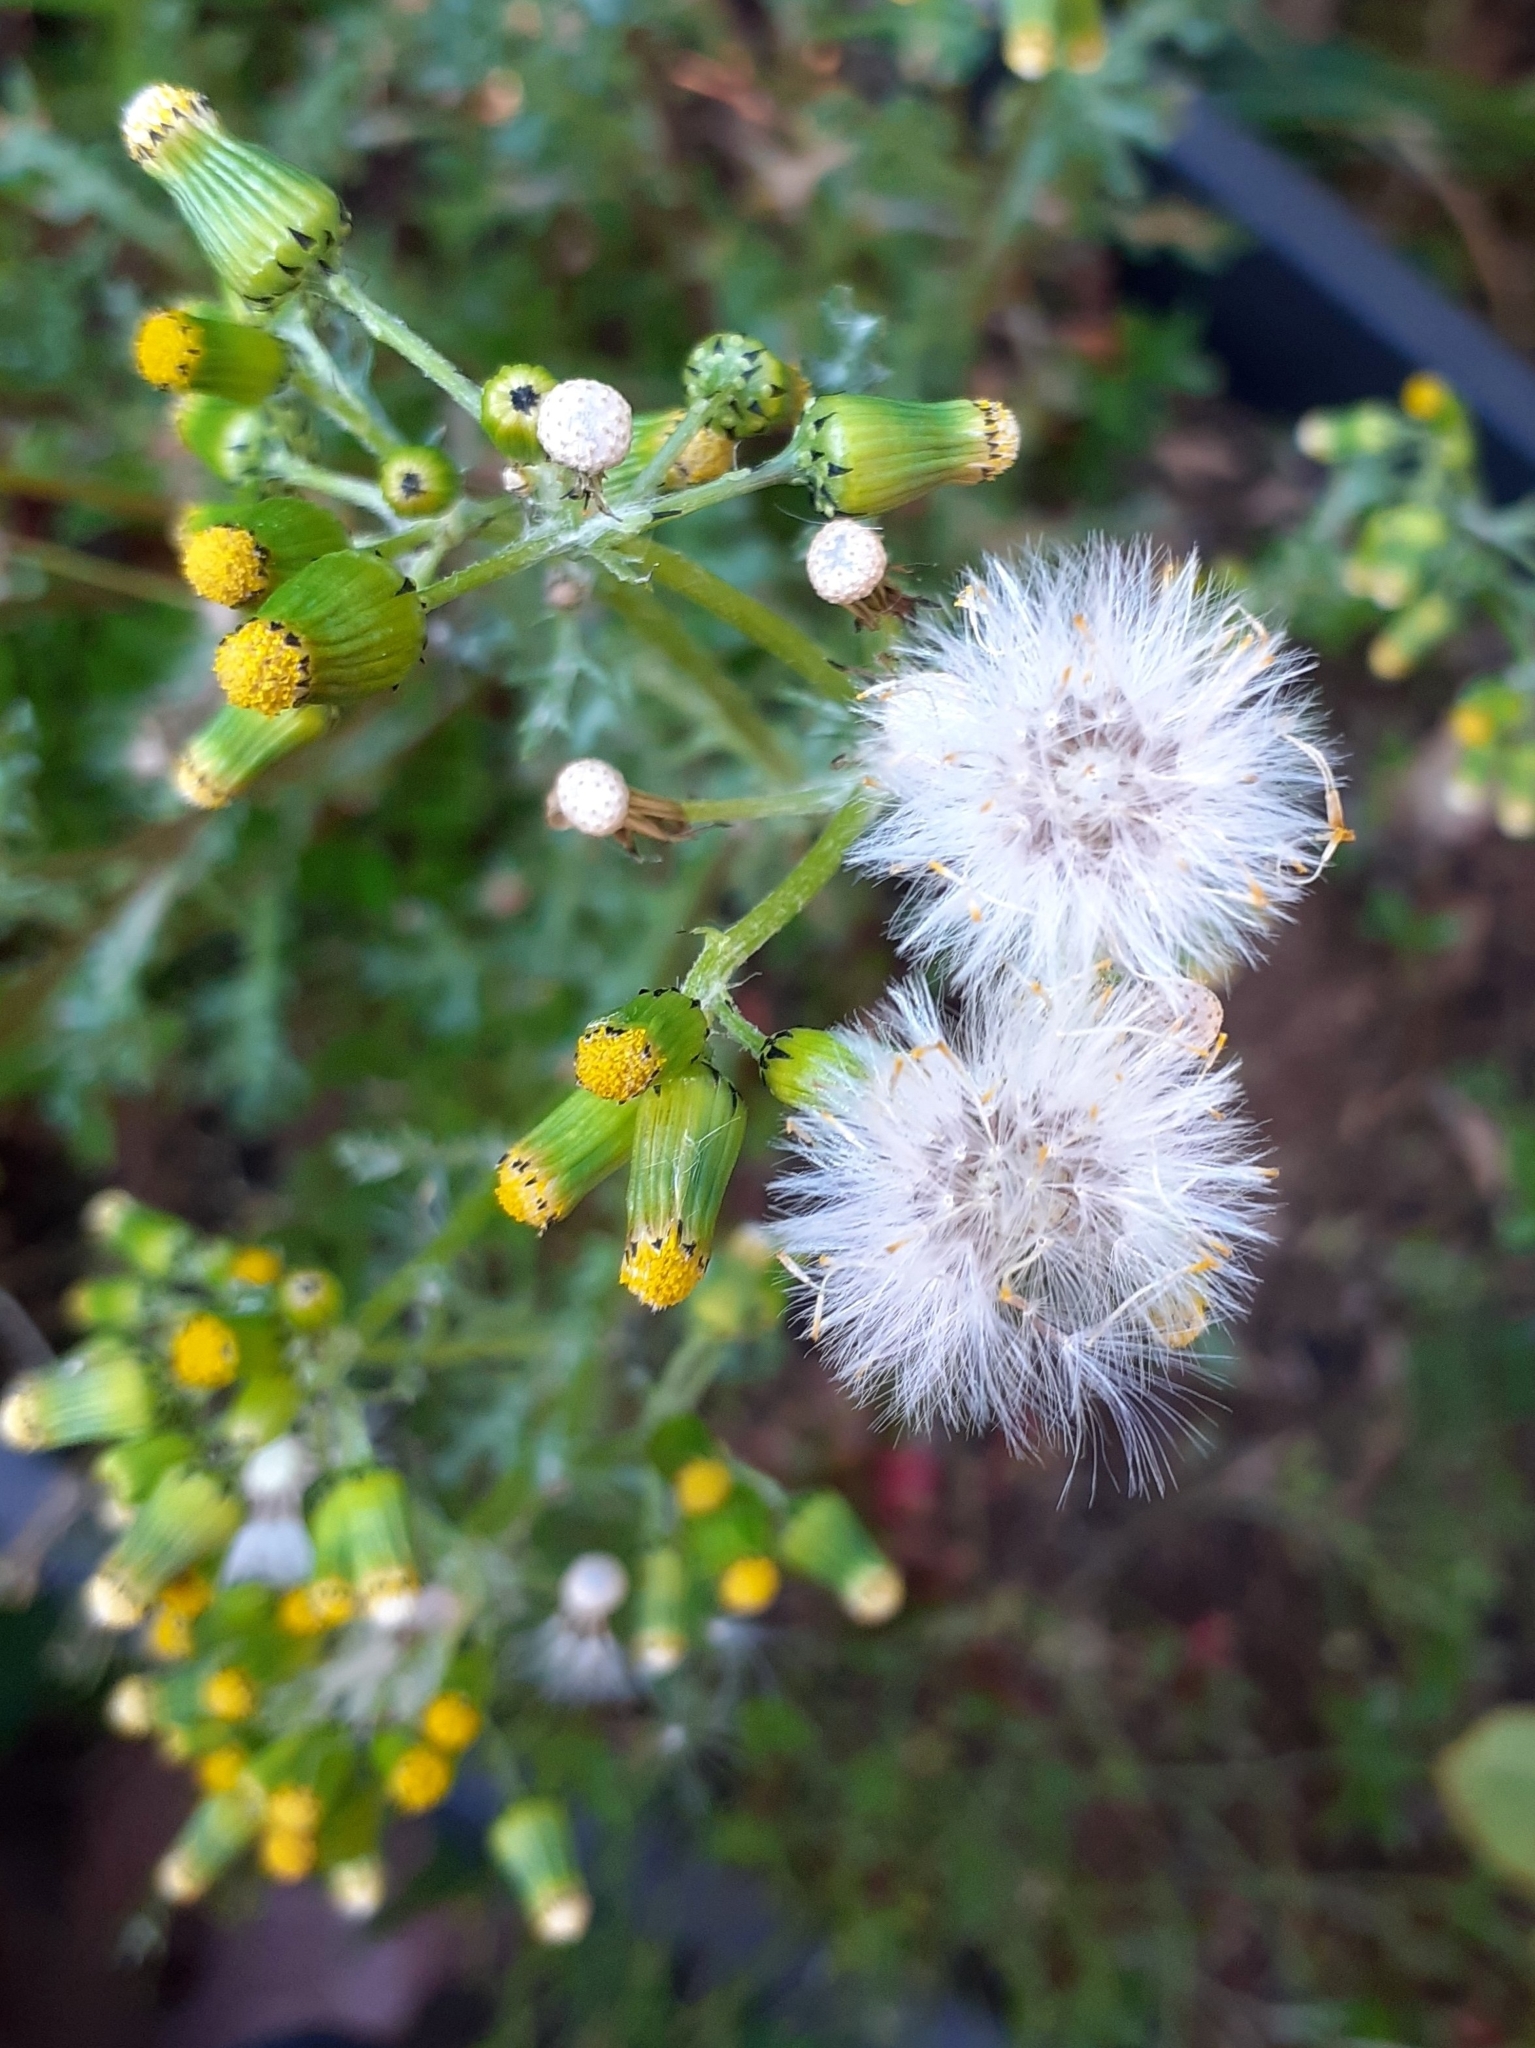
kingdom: Plantae
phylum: Tracheophyta
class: Magnoliopsida
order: Asterales
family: Asteraceae
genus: Senecio
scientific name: Senecio vulgaris
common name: Old-man-in-the-spring
